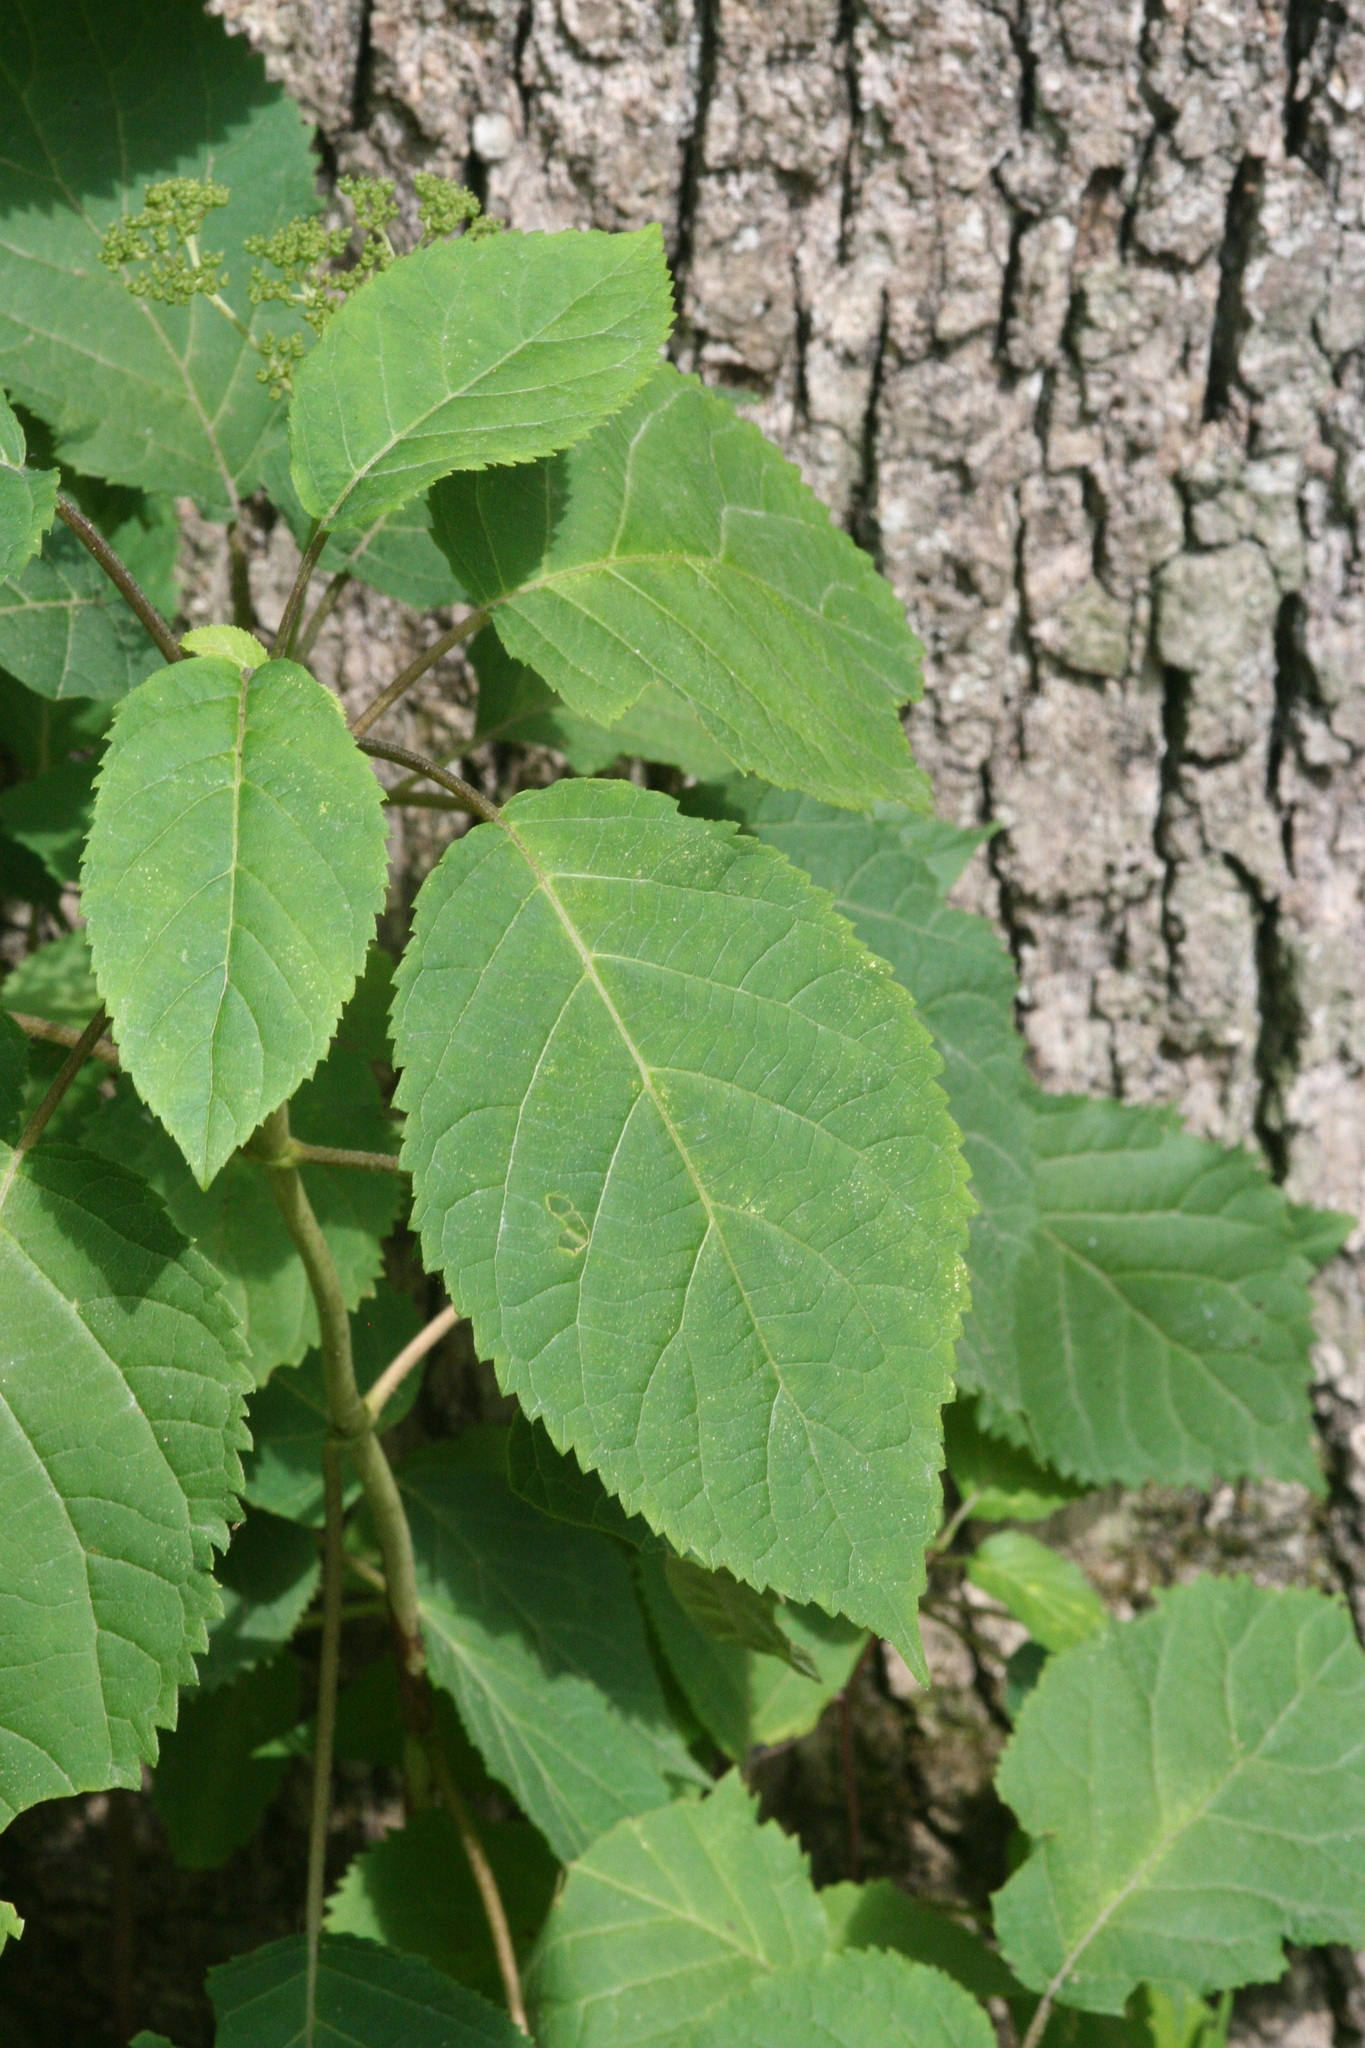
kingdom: Plantae
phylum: Tracheophyta
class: Magnoliopsida
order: Cornales
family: Hydrangeaceae
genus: Hydrangea
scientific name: Hydrangea arborescens
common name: Sevenbark
